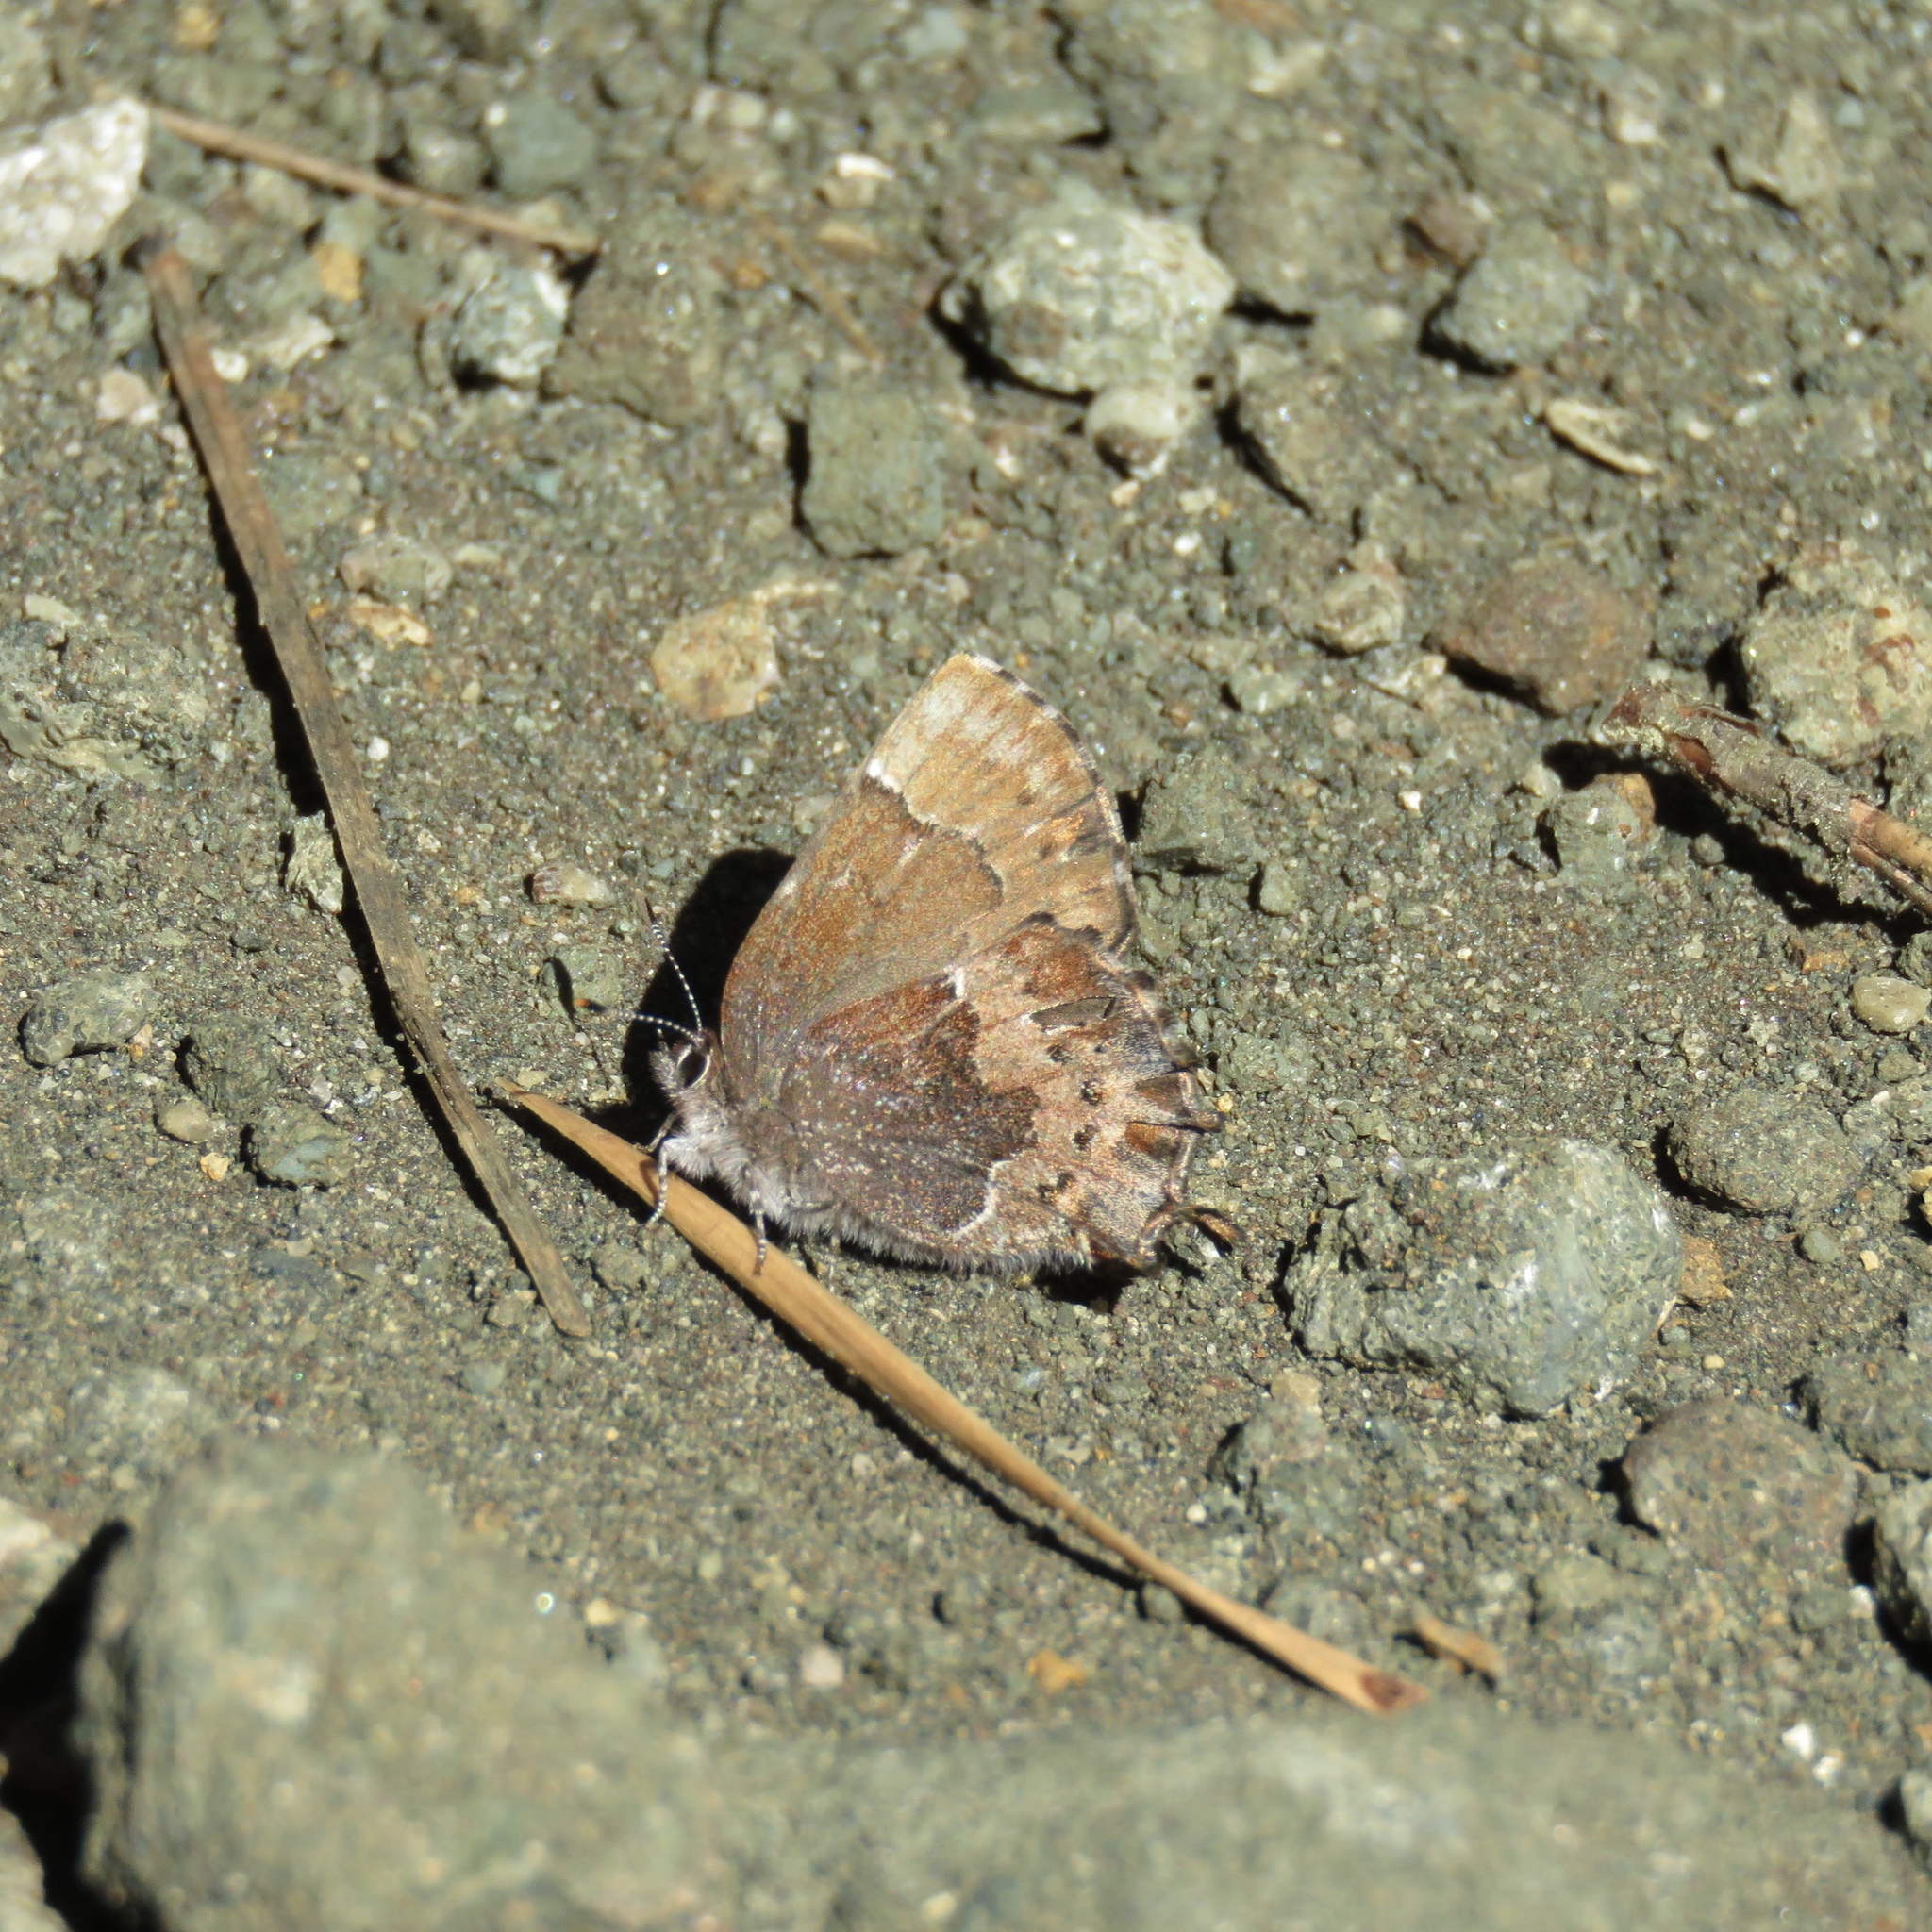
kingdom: Animalia
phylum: Arthropoda
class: Insecta
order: Lepidoptera
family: Lycaenidae
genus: Incisalia
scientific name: Incisalia henrici
